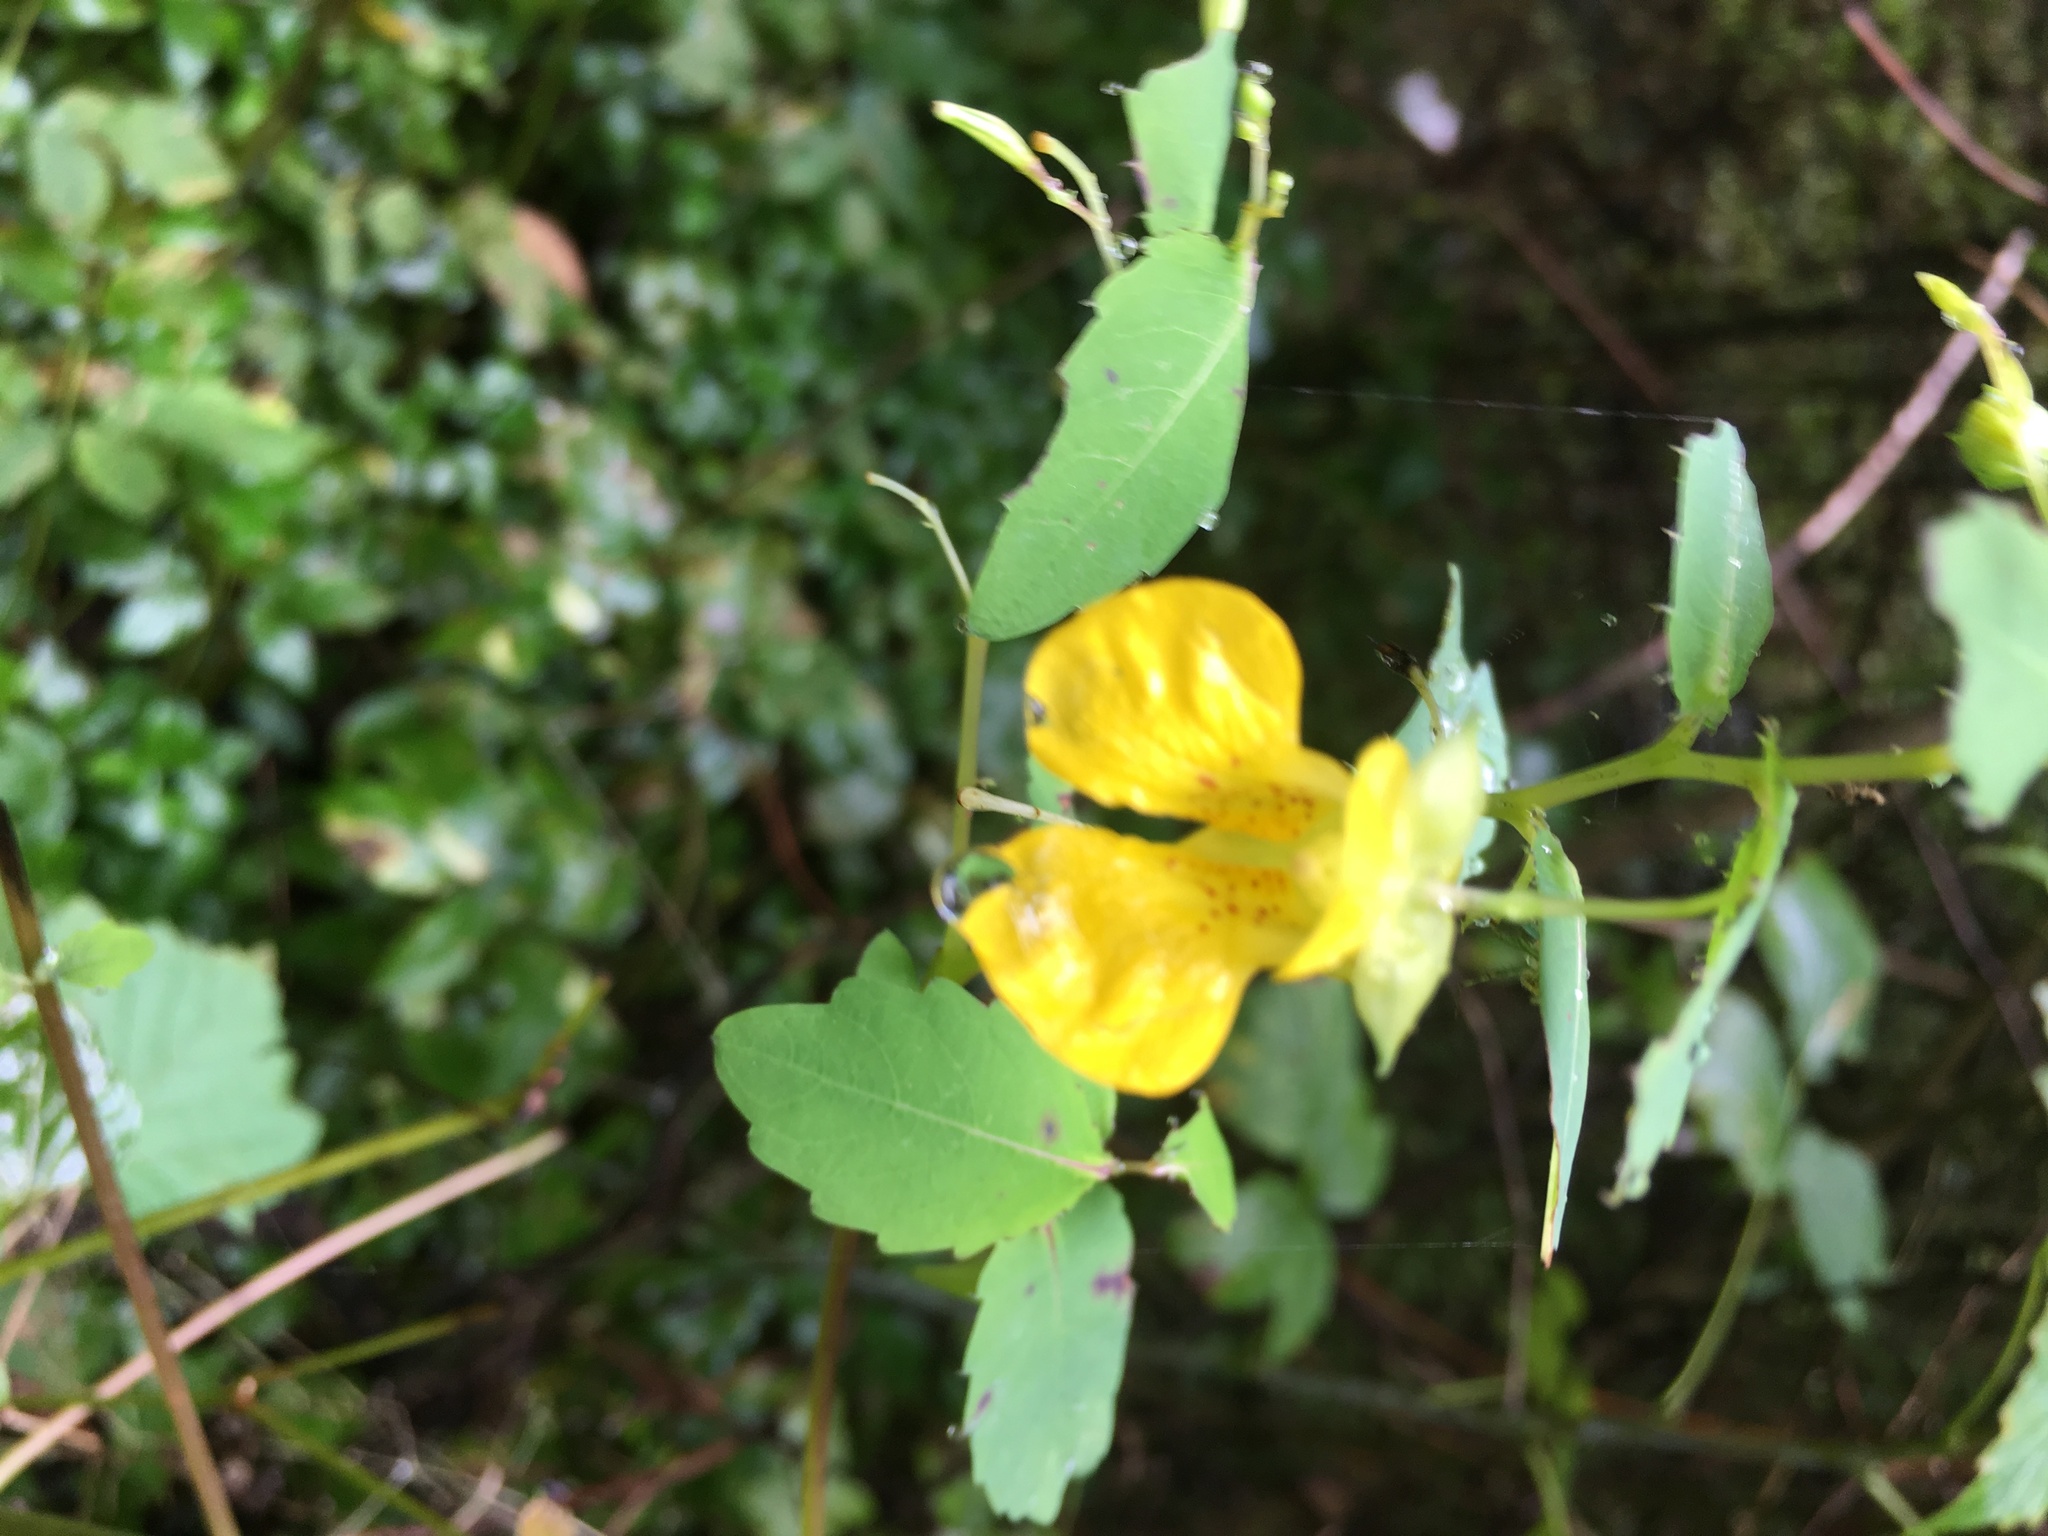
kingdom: Plantae
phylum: Tracheophyta
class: Magnoliopsida
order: Ericales
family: Balsaminaceae
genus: Impatiens
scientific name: Impatiens pallida
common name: Pale snapweed
